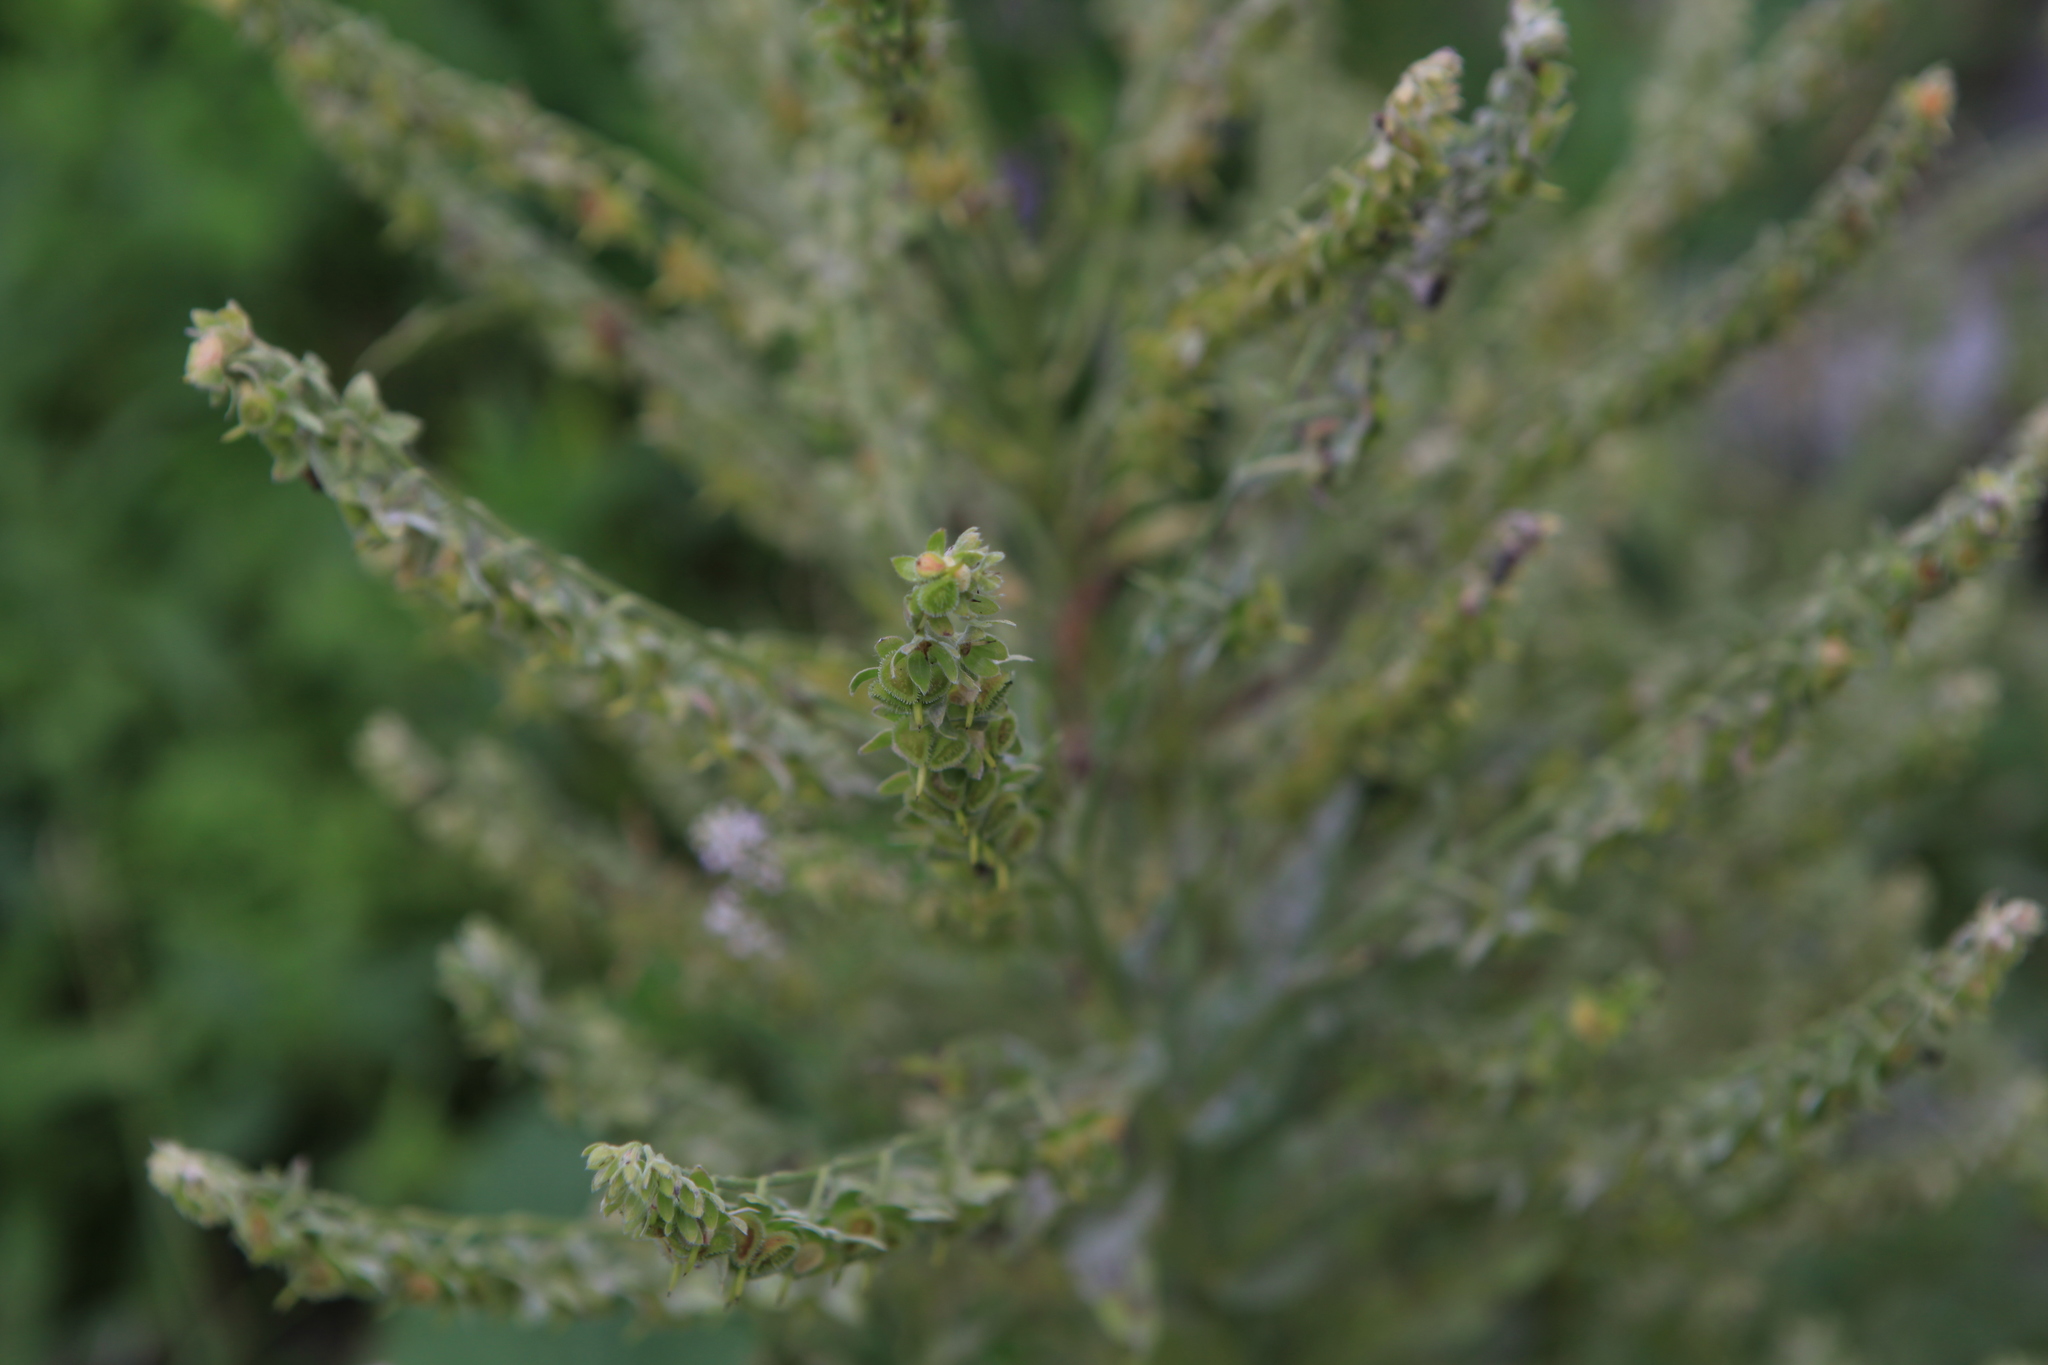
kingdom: Plantae
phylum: Tracheophyta
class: Magnoliopsida
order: Boraginales
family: Boraginaceae
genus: Cynoglossum
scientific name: Cynoglossum officinale
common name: Hound's-tongue
